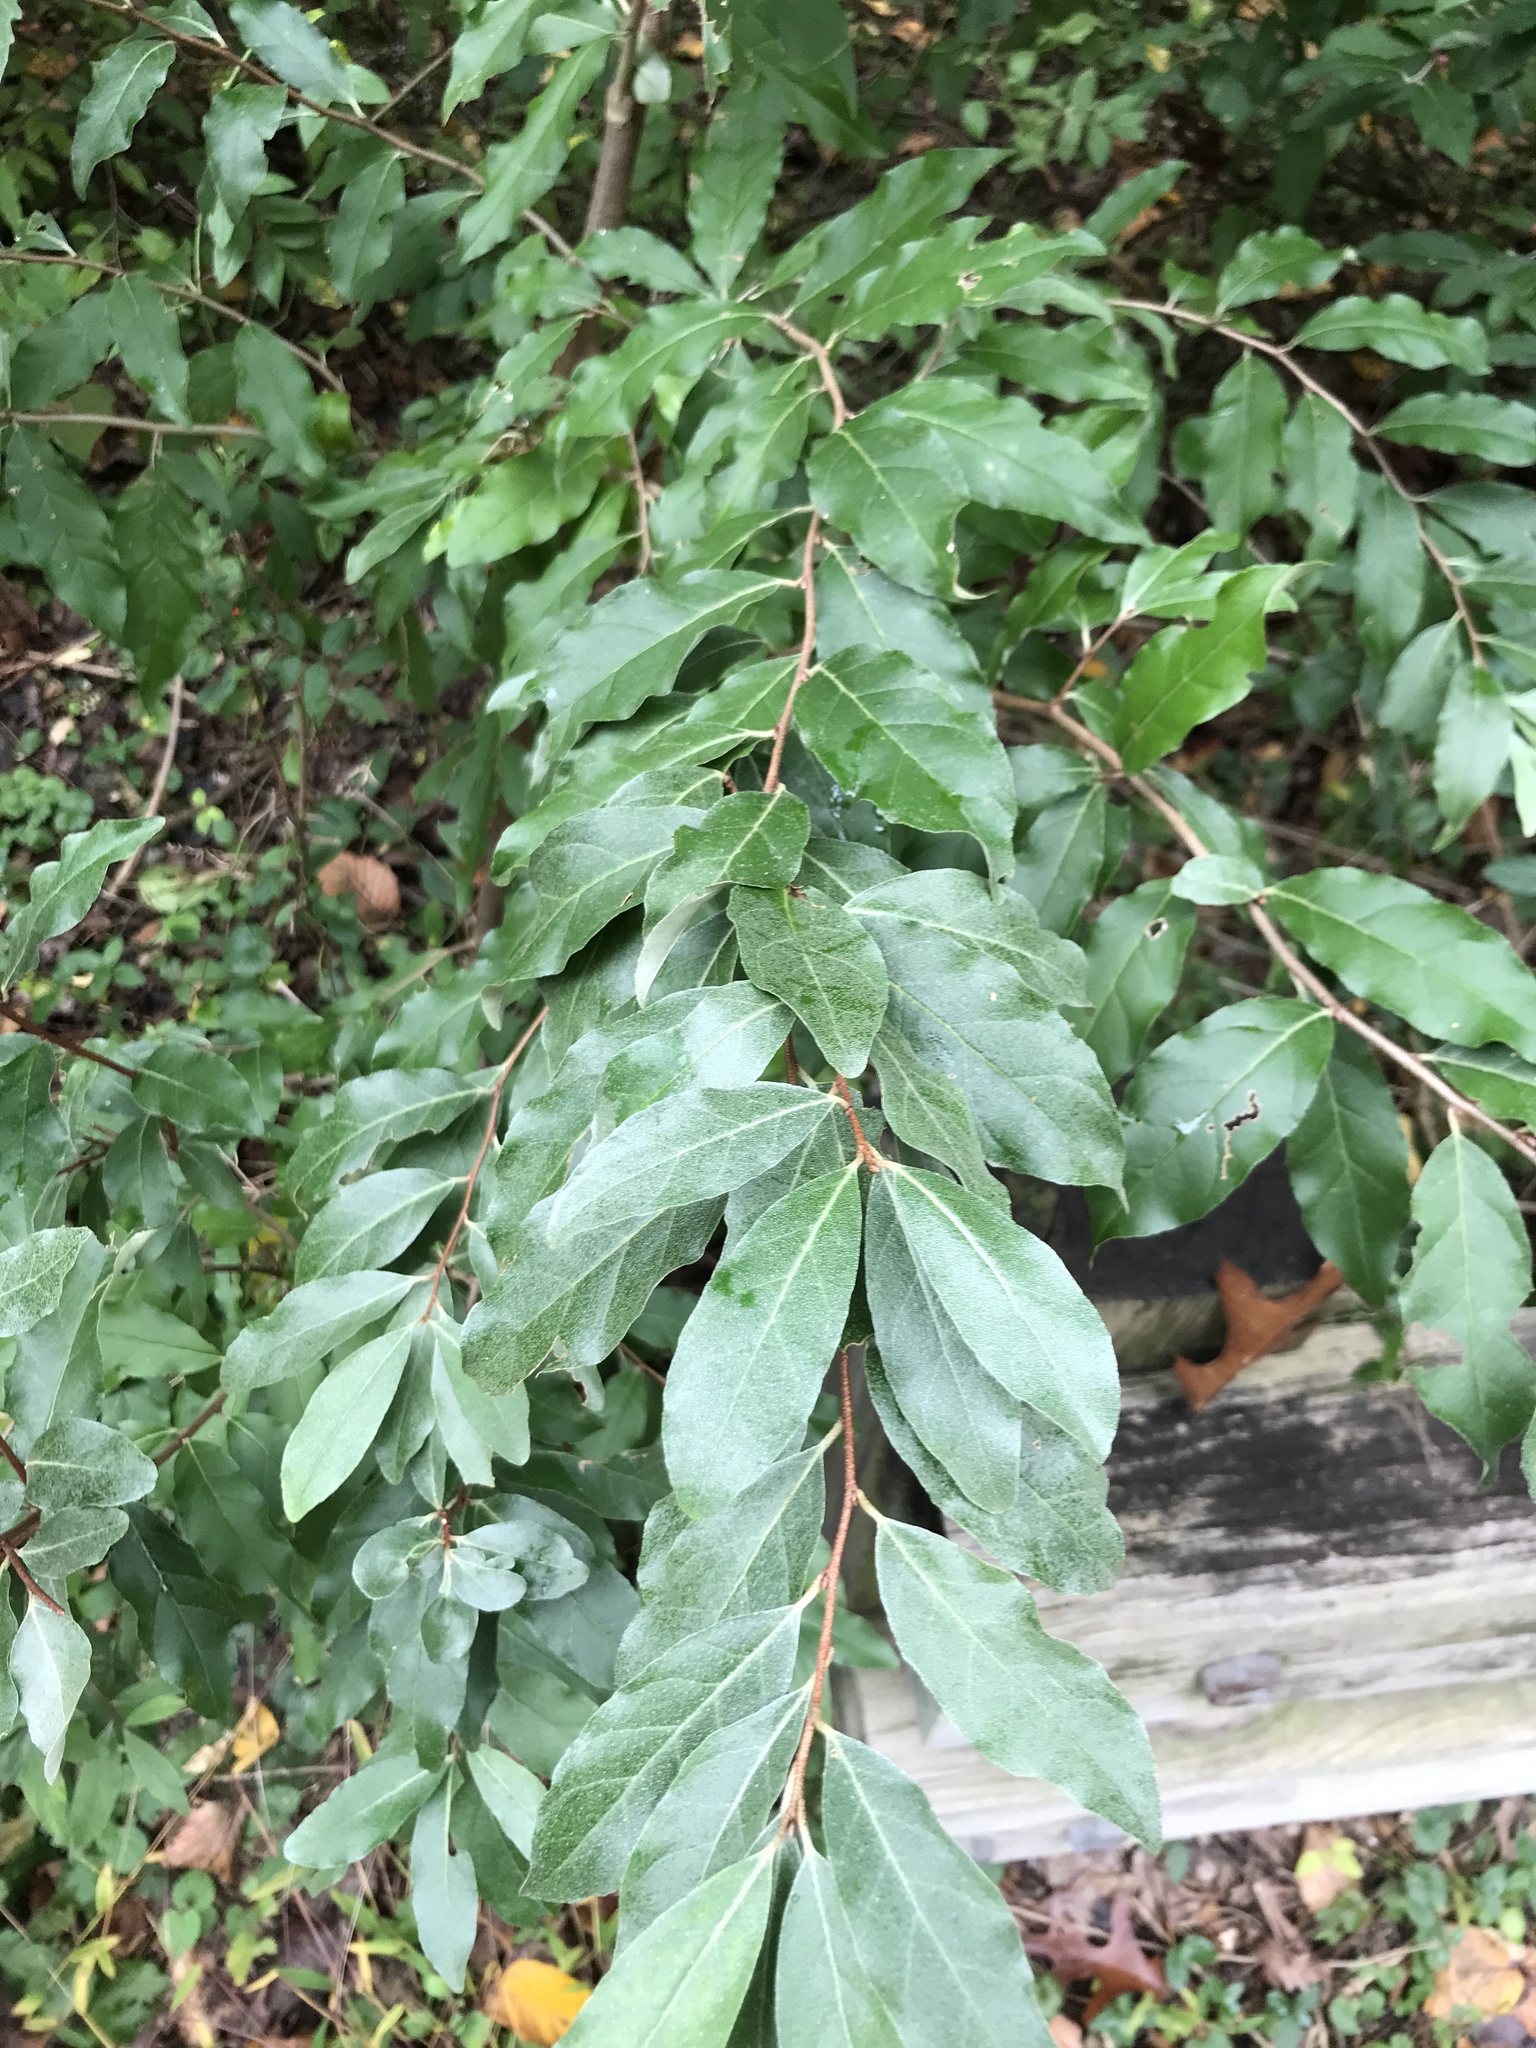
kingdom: Plantae
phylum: Tracheophyta
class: Magnoliopsida
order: Rosales
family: Elaeagnaceae
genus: Elaeagnus
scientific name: Elaeagnus umbellata
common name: Autumn olive
